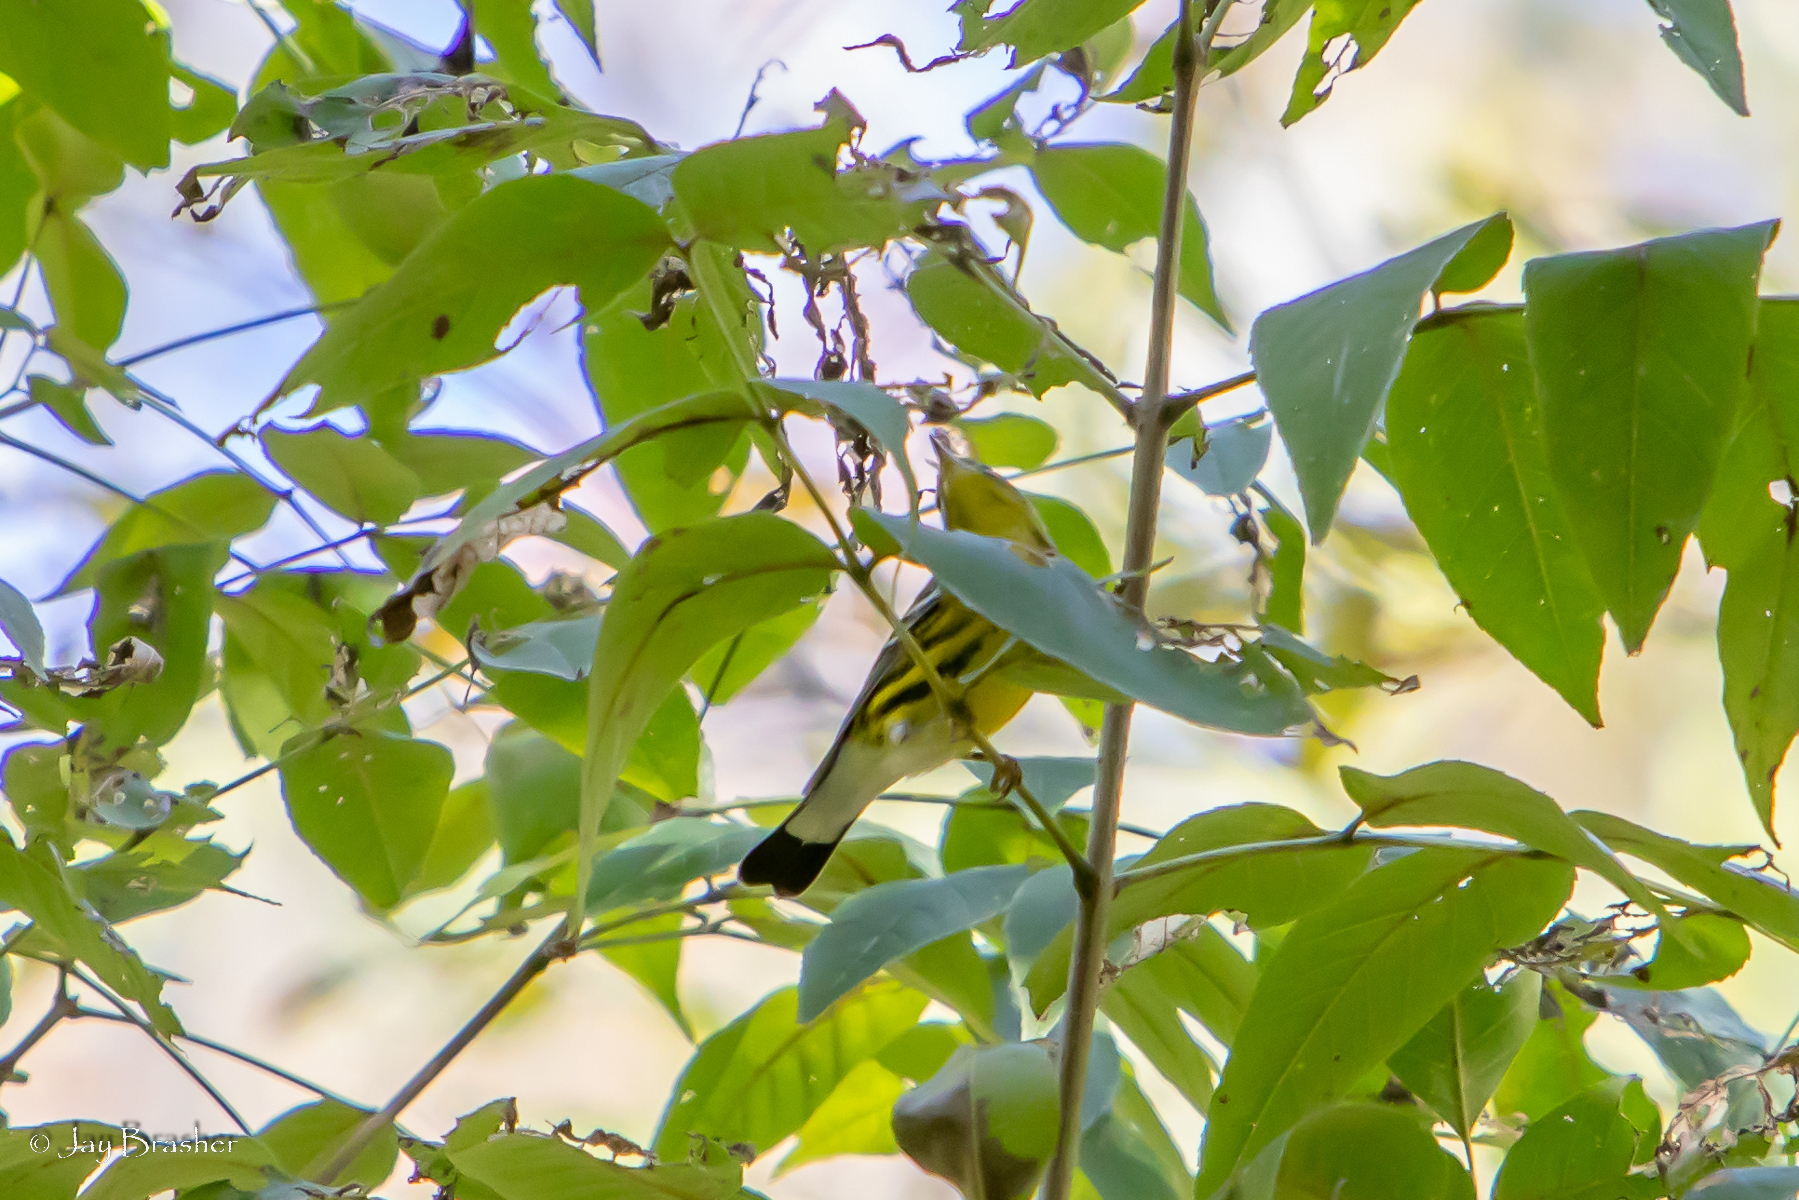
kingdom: Animalia
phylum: Chordata
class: Aves
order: Passeriformes
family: Parulidae
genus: Setophaga
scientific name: Setophaga magnolia
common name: Magnolia warbler
